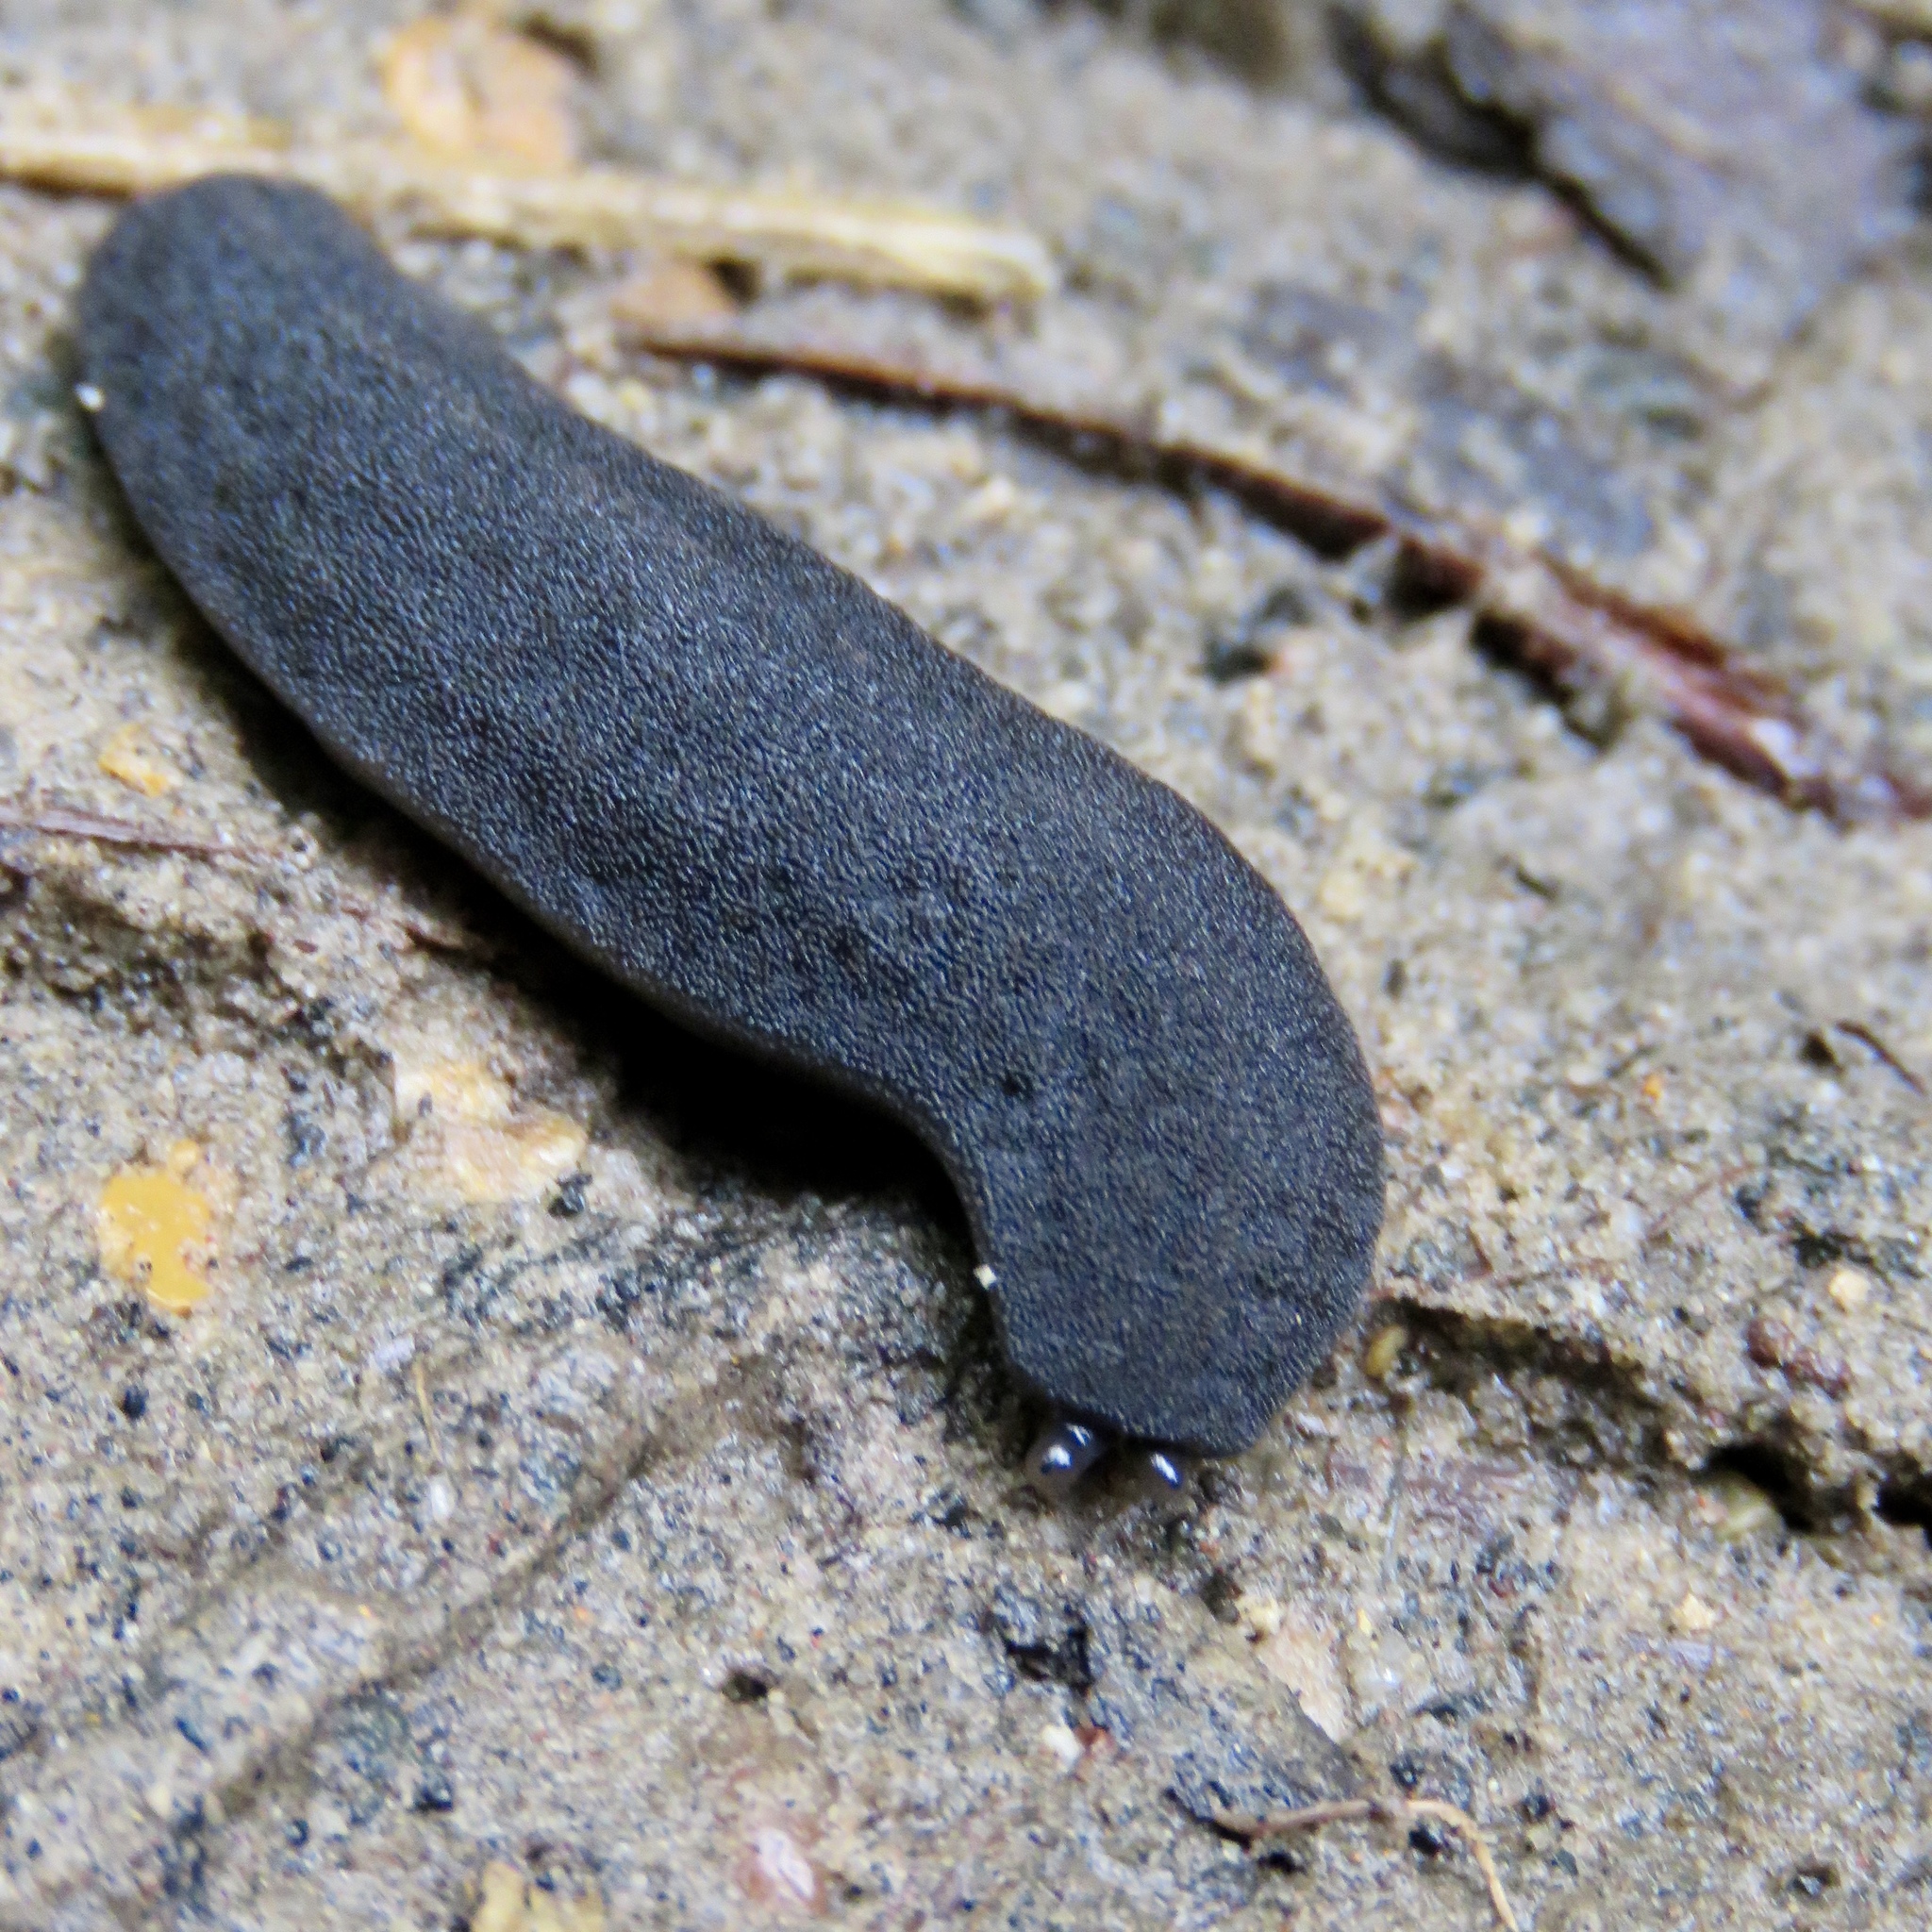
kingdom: Animalia
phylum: Mollusca
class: Gastropoda
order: Systellommatophora
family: Veronicellidae
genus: Belocaulus
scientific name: Belocaulus angustipes
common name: Black velvet leatherleaf slug
